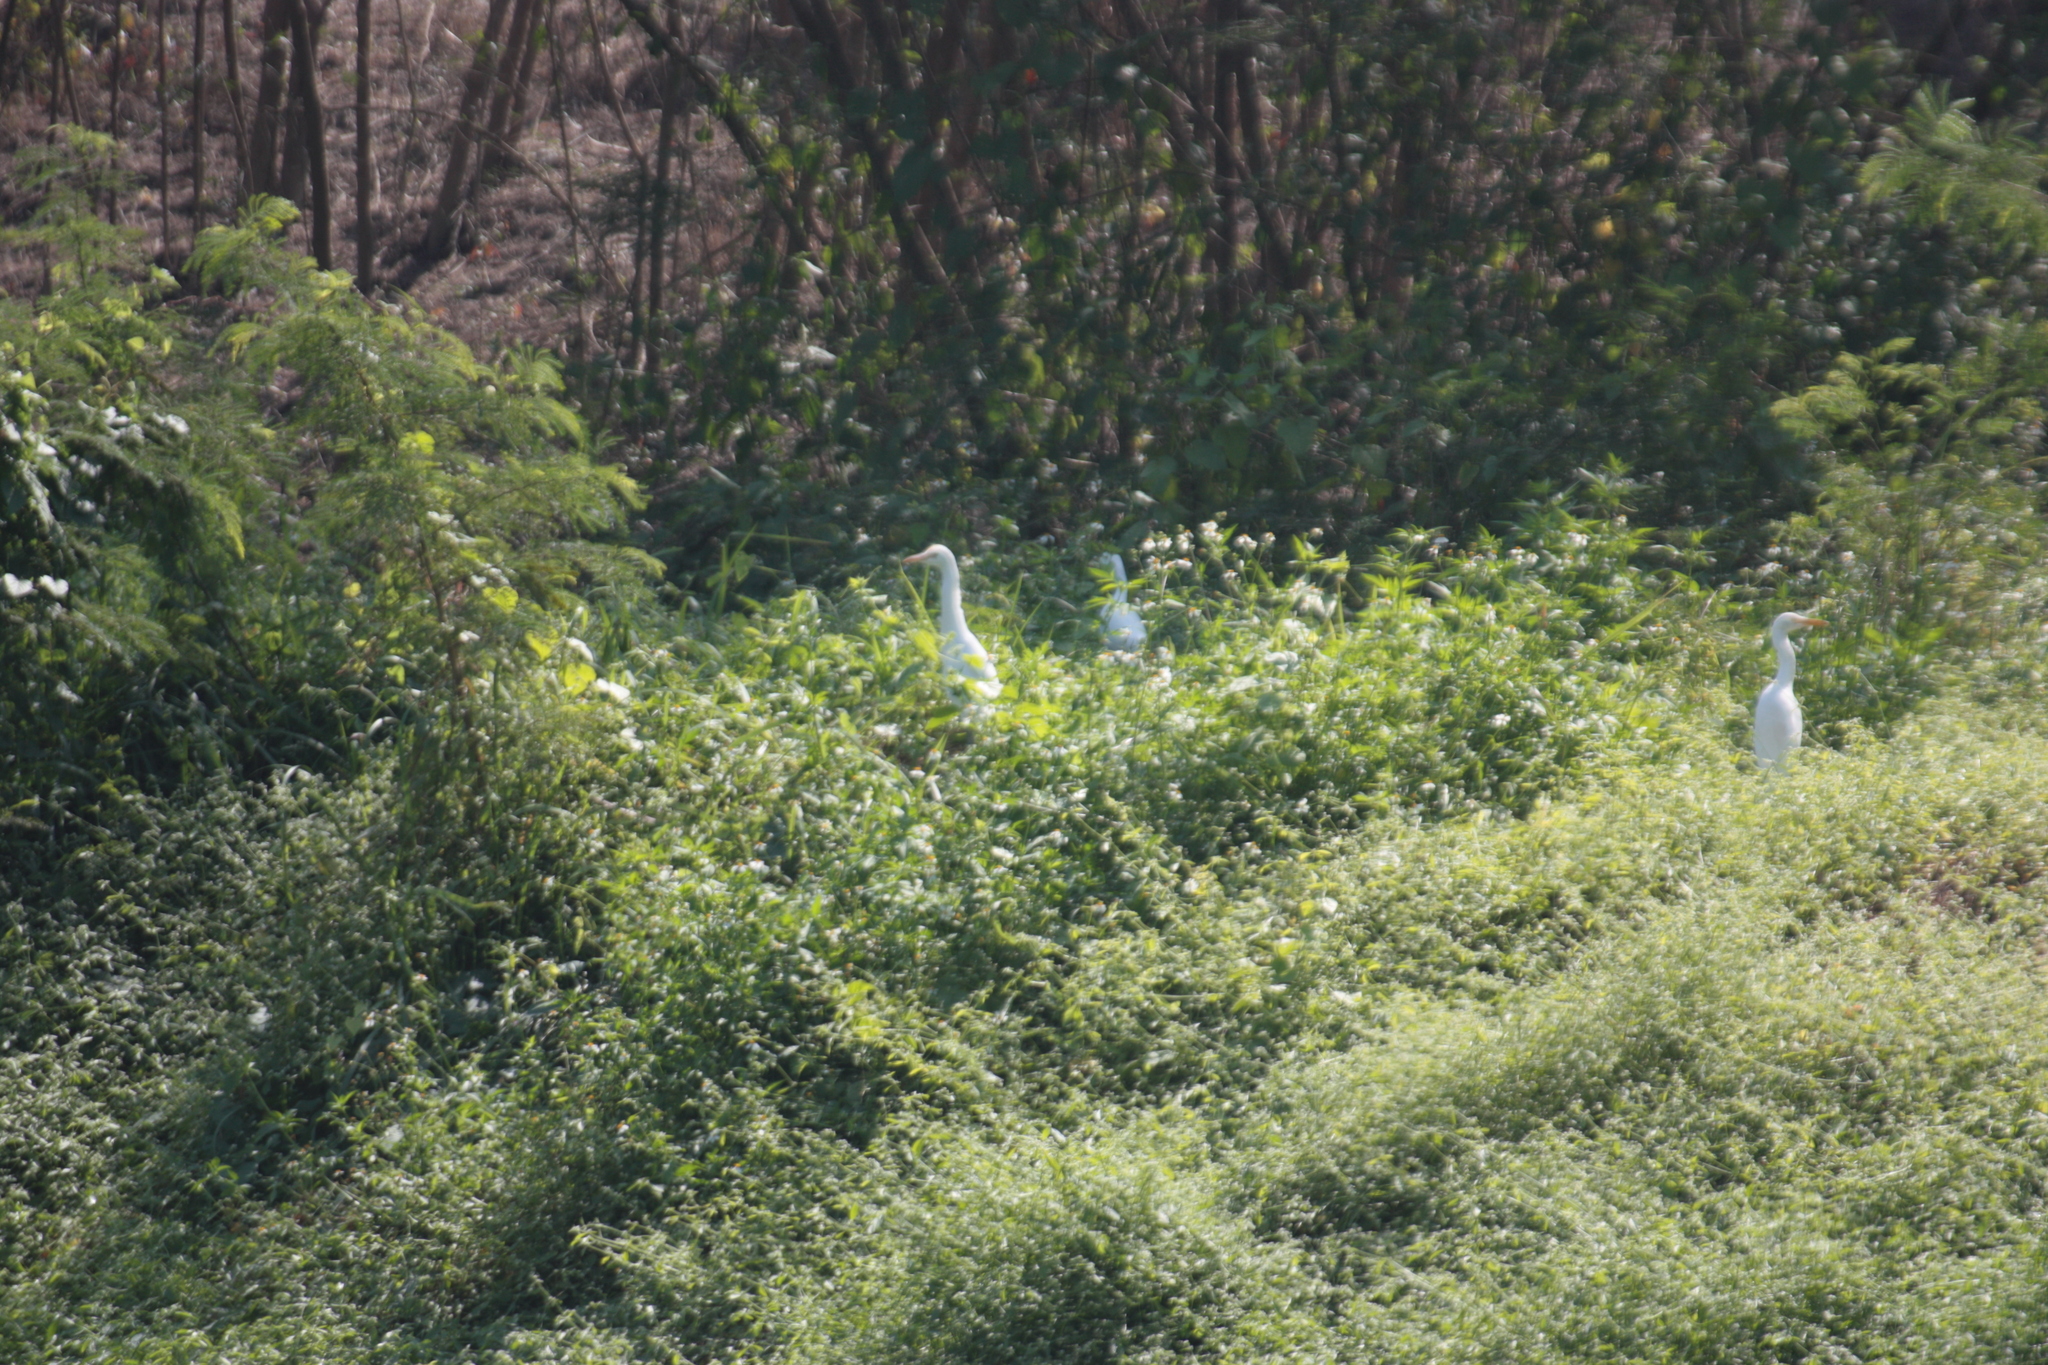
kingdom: Animalia
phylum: Chordata
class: Aves
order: Pelecaniformes
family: Ardeidae
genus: Bubulcus
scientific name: Bubulcus coromandus
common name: Eastern cattle egret
